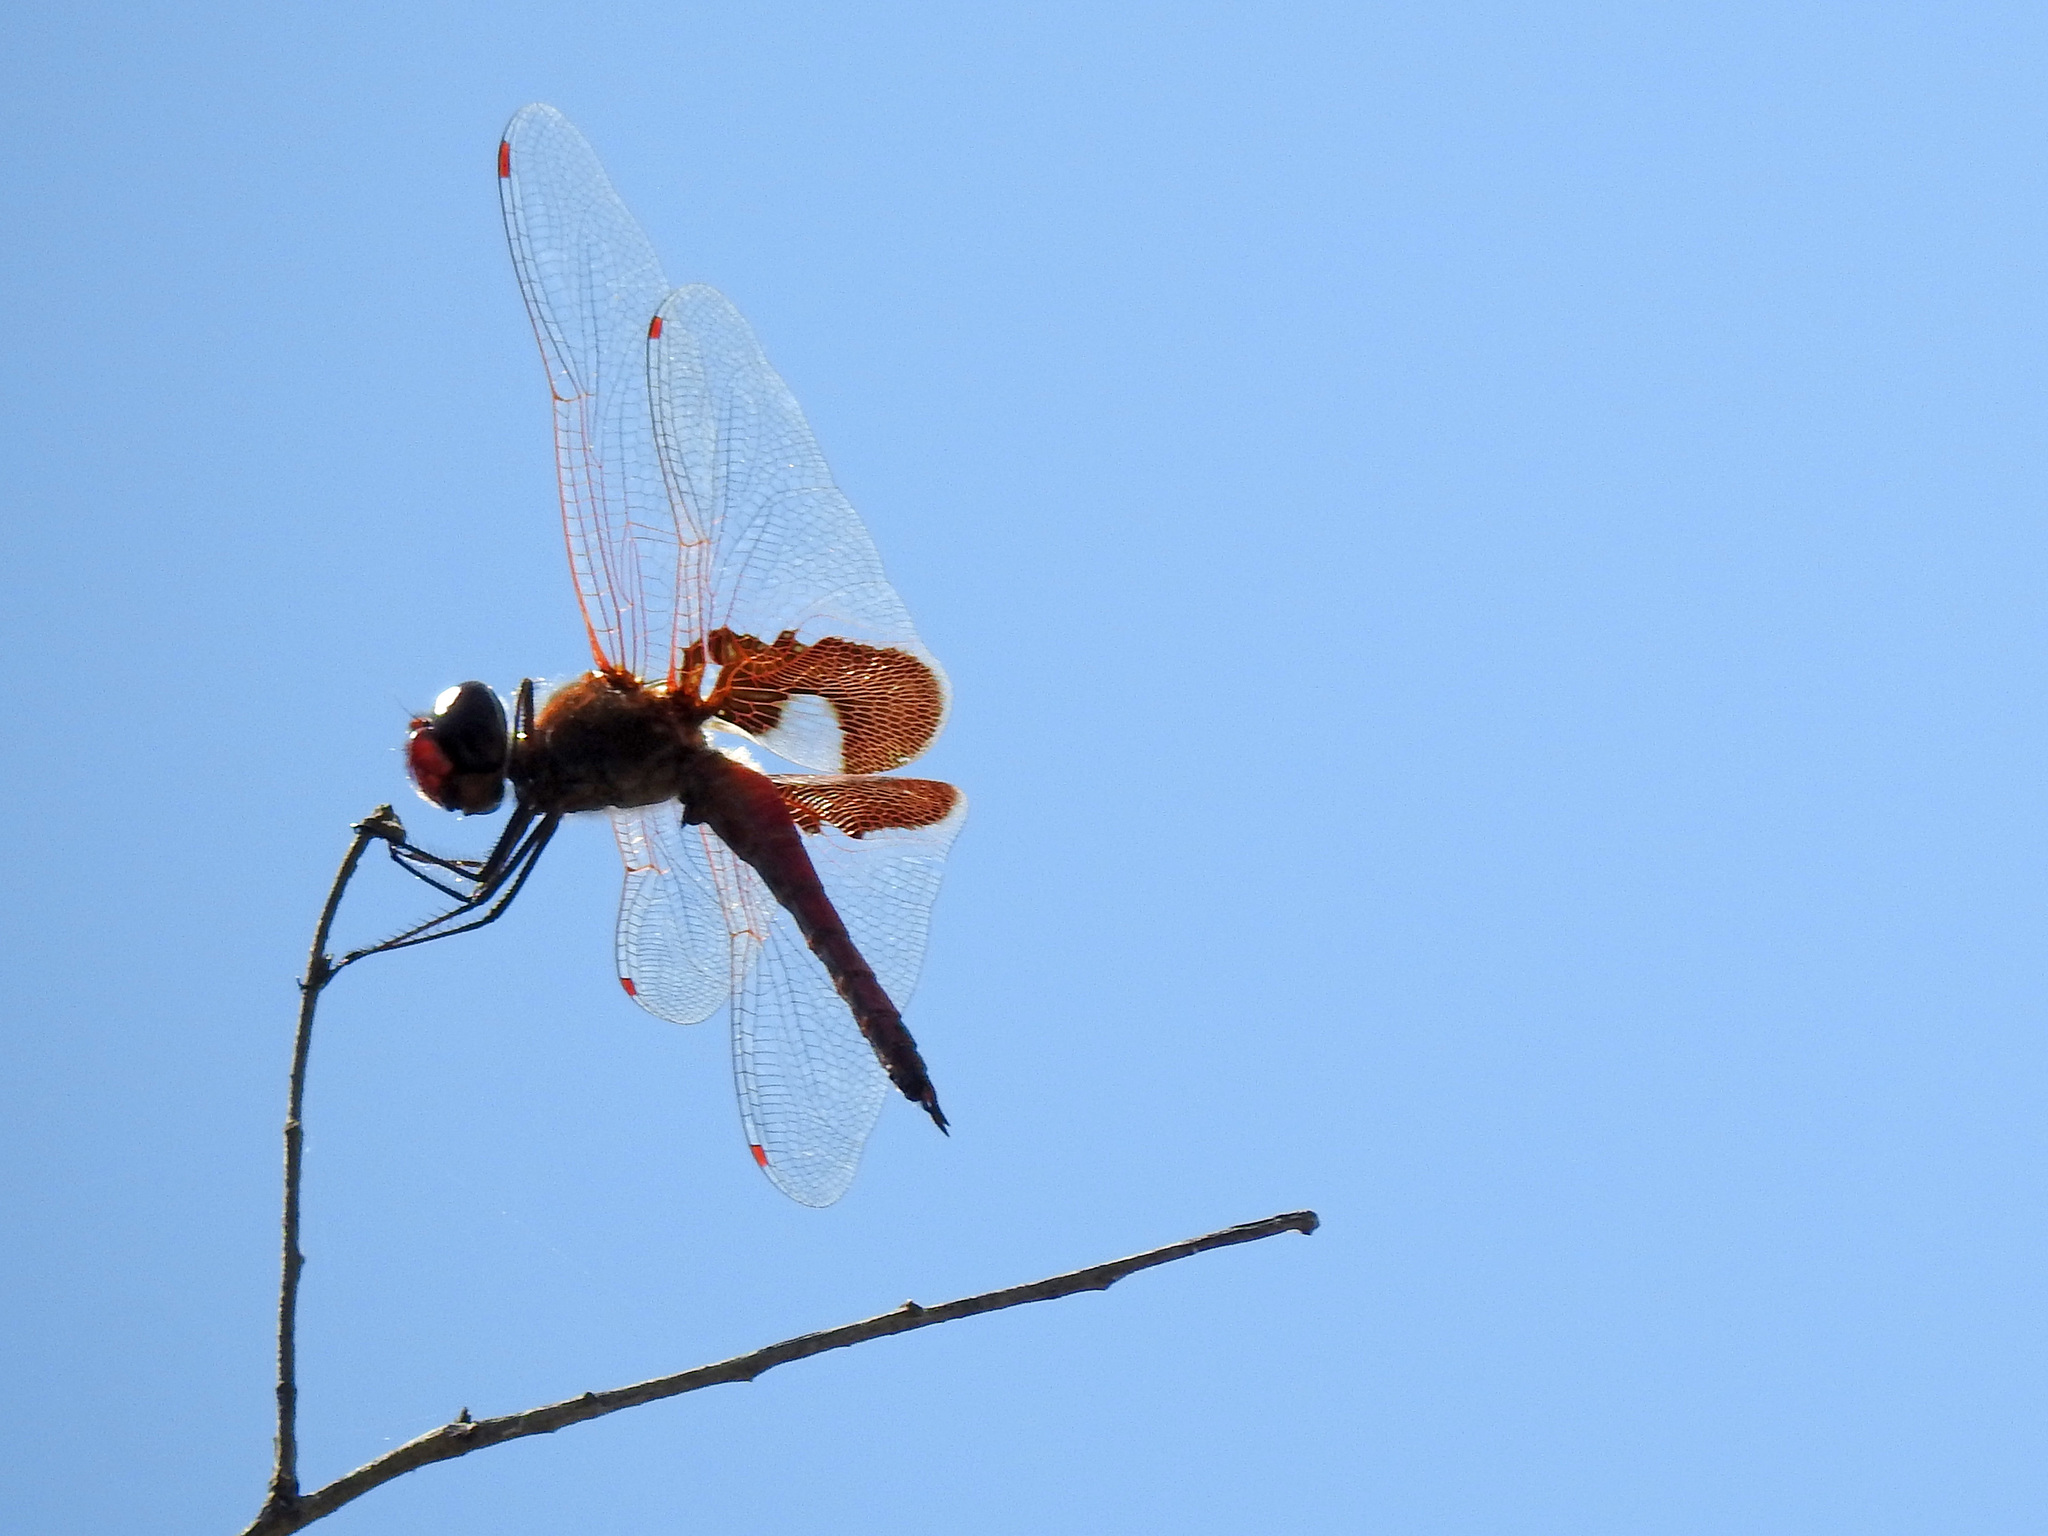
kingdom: Animalia
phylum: Arthropoda
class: Insecta
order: Odonata
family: Libellulidae
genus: Tramea
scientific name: Tramea onusta
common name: Red saddlebags
